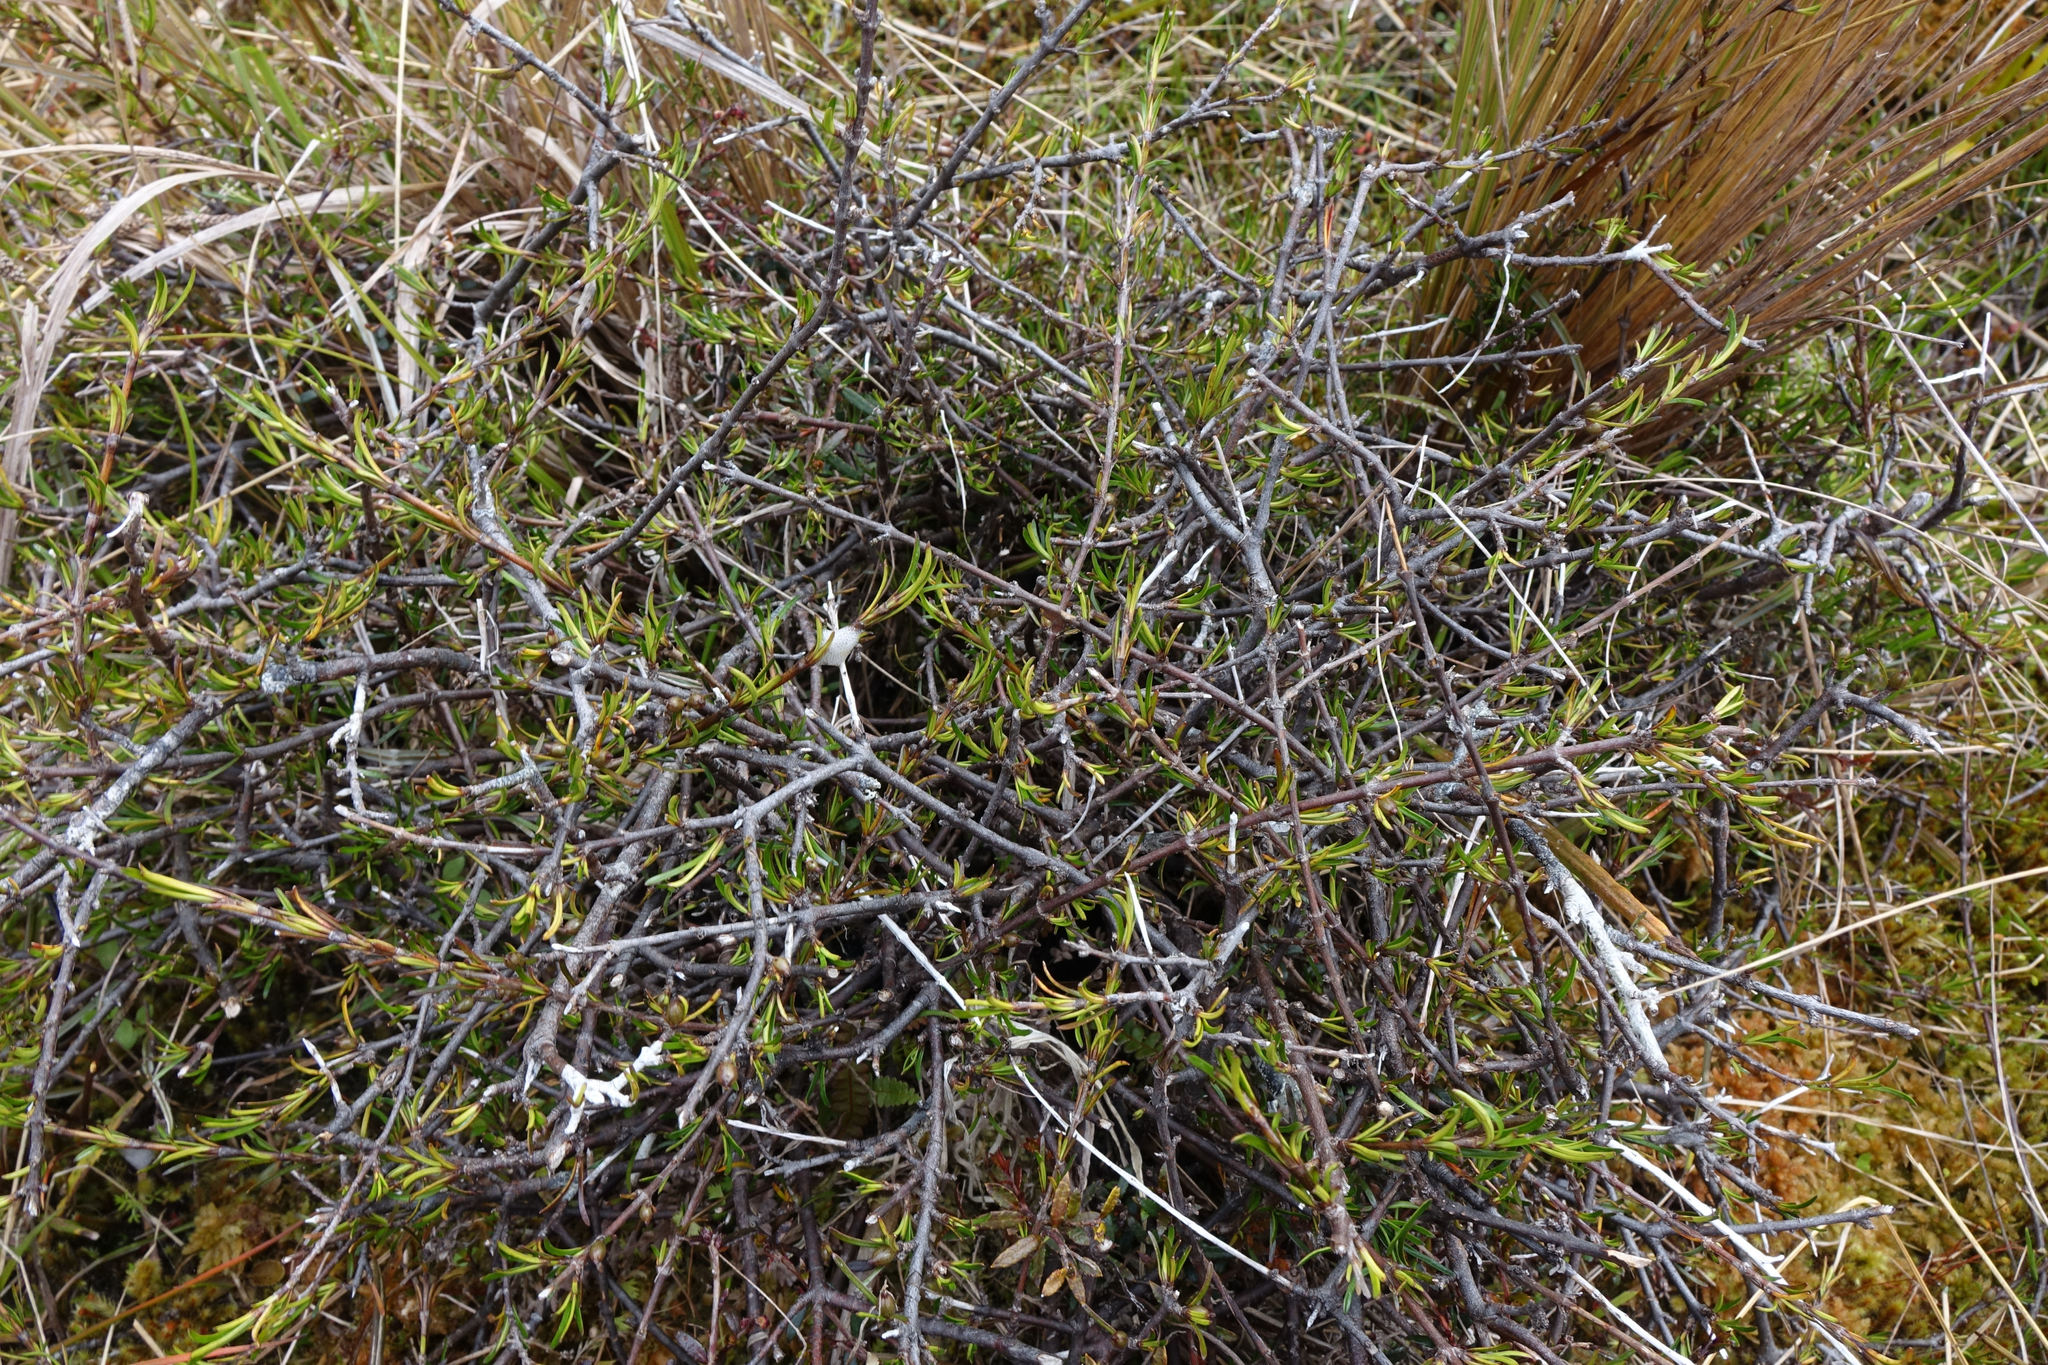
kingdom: Plantae
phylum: Tracheophyta
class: Magnoliopsida
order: Gentianales
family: Rubiaceae
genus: Coprosma
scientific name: Coprosma elatirioides
